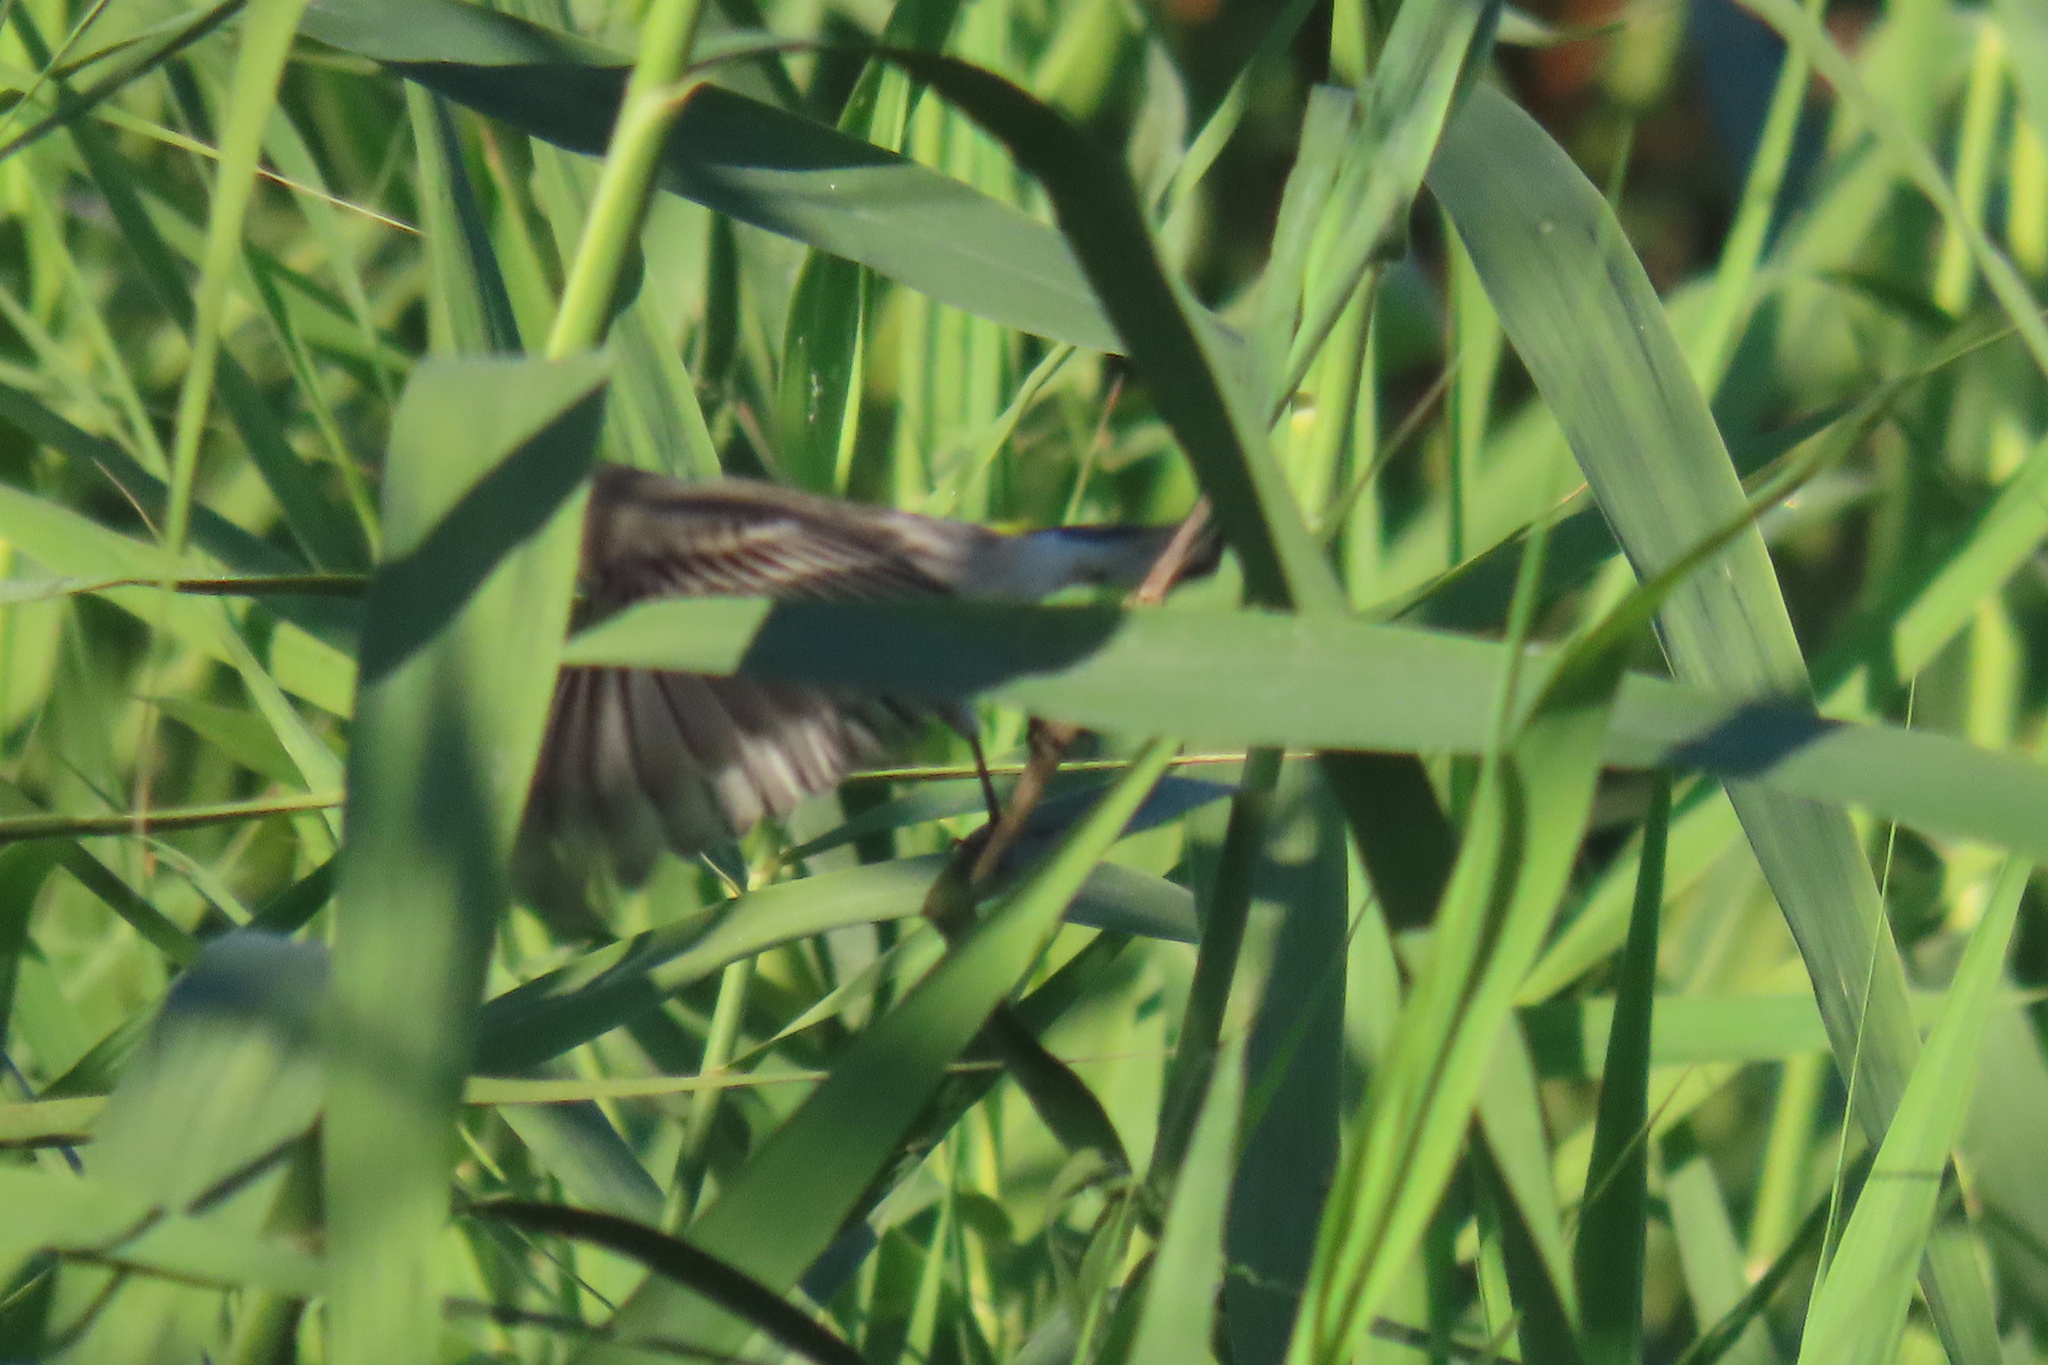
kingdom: Animalia
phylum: Chordata
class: Aves
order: Passeriformes
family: Parulidae
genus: Setophaga
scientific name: Setophaga auduboni
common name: Audubon's warbler
